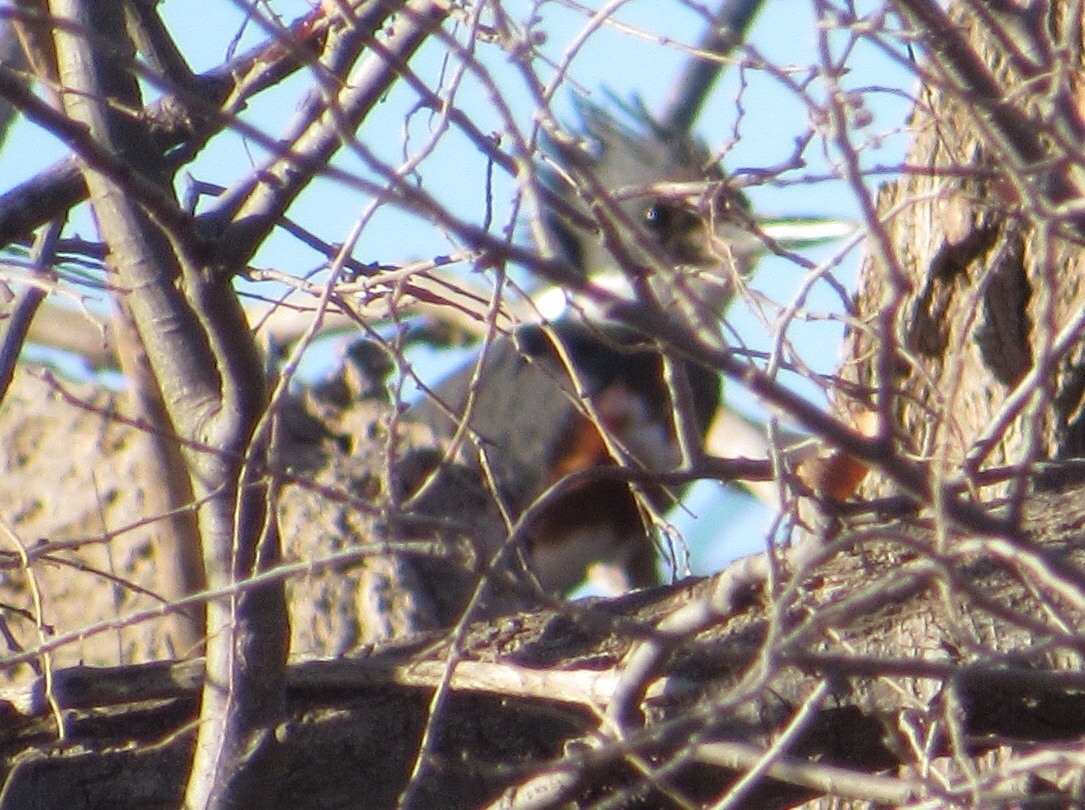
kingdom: Animalia
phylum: Chordata
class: Aves
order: Coraciiformes
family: Alcedinidae
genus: Megaceryle
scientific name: Megaceryle alcyon
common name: Belted kingfisher
